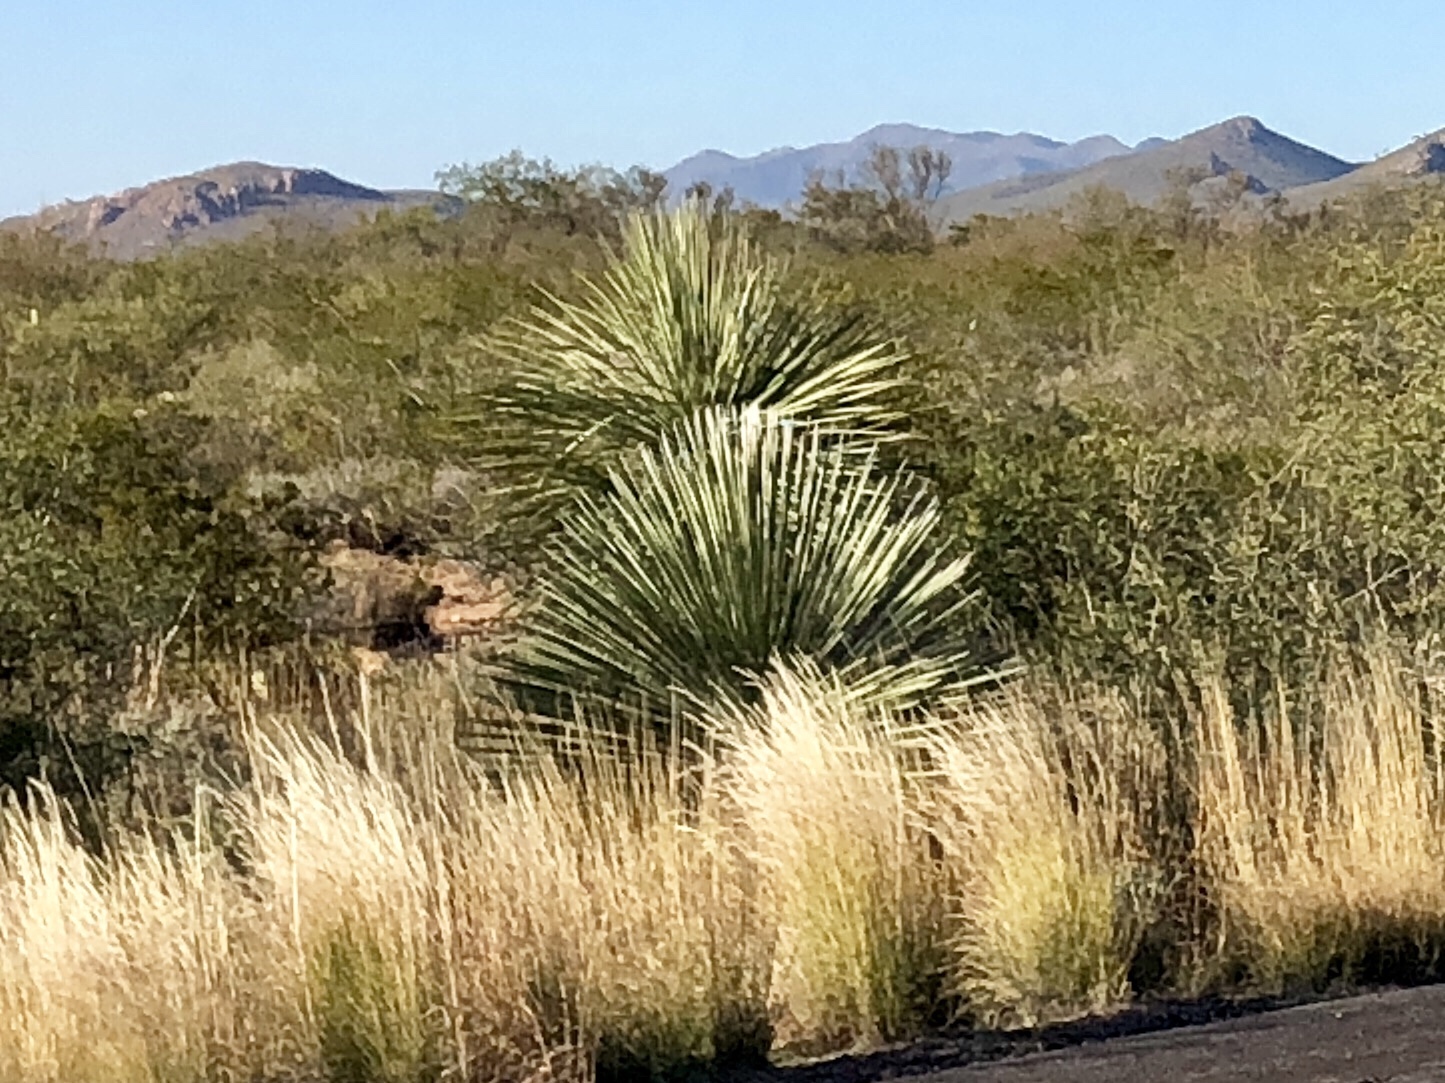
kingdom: Plantae
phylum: Tracheophyta
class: Liliopsida
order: Asparagales
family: Asparagaceae
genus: Yucca
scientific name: Yucca elata
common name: Palmella
